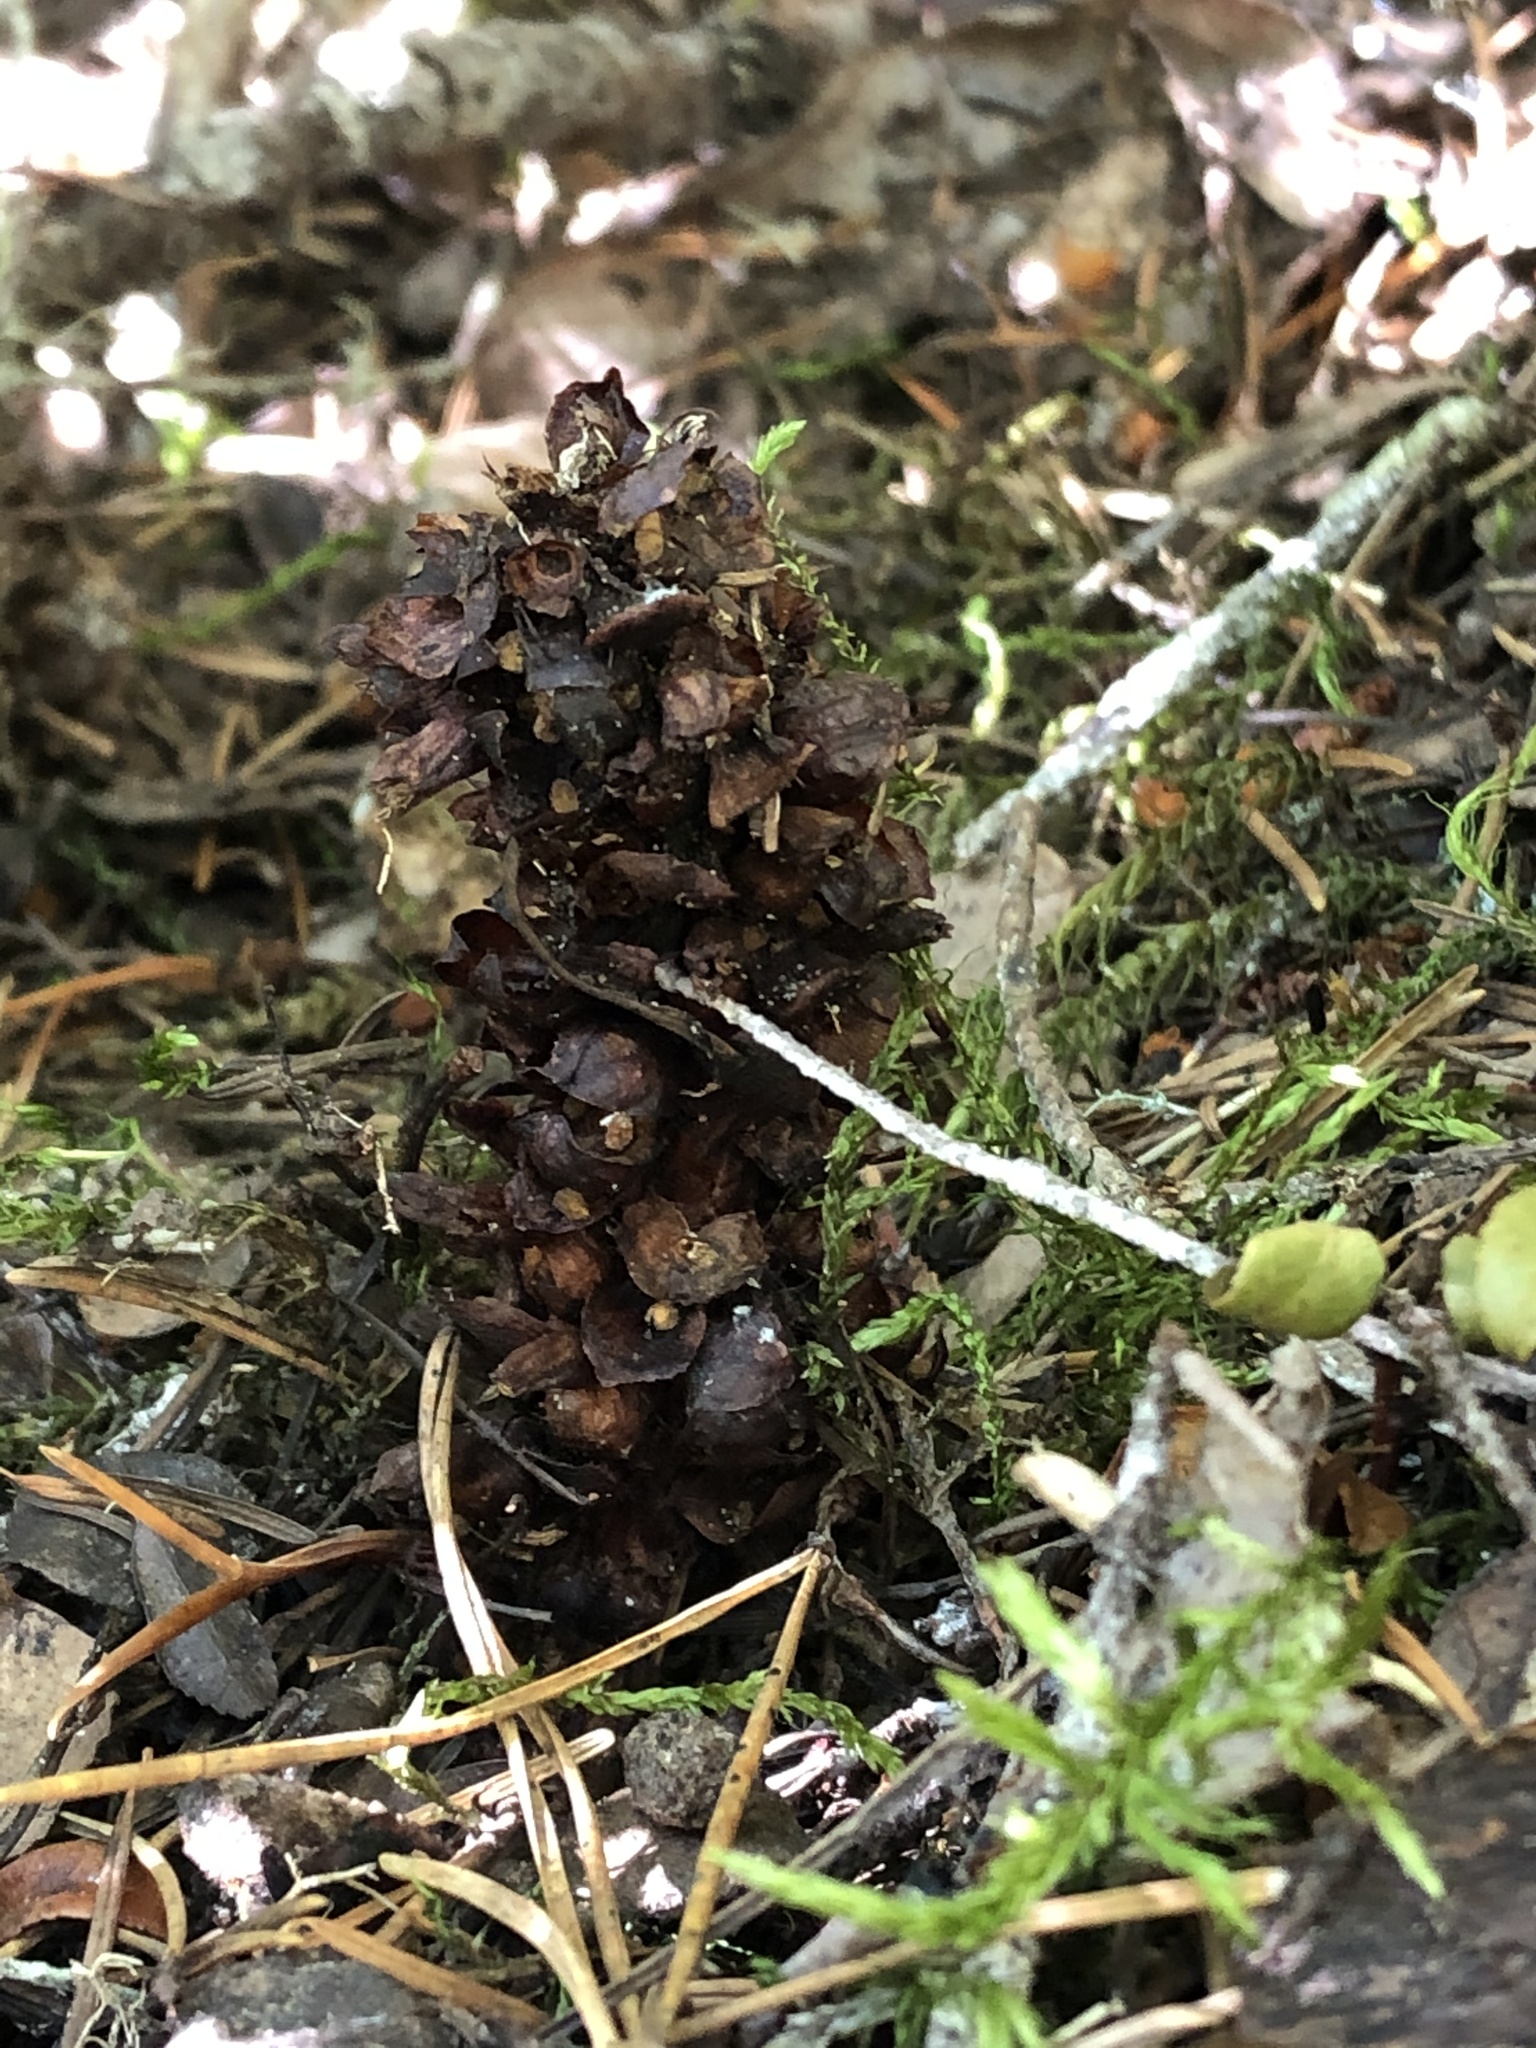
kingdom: Plantae
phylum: Tracheophyta
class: Magnoliopsida
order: Lamiales
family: Orobanchaceae
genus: Kopsiopsis
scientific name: Kopsiopsis hookeri
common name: Hooker's groundcone
